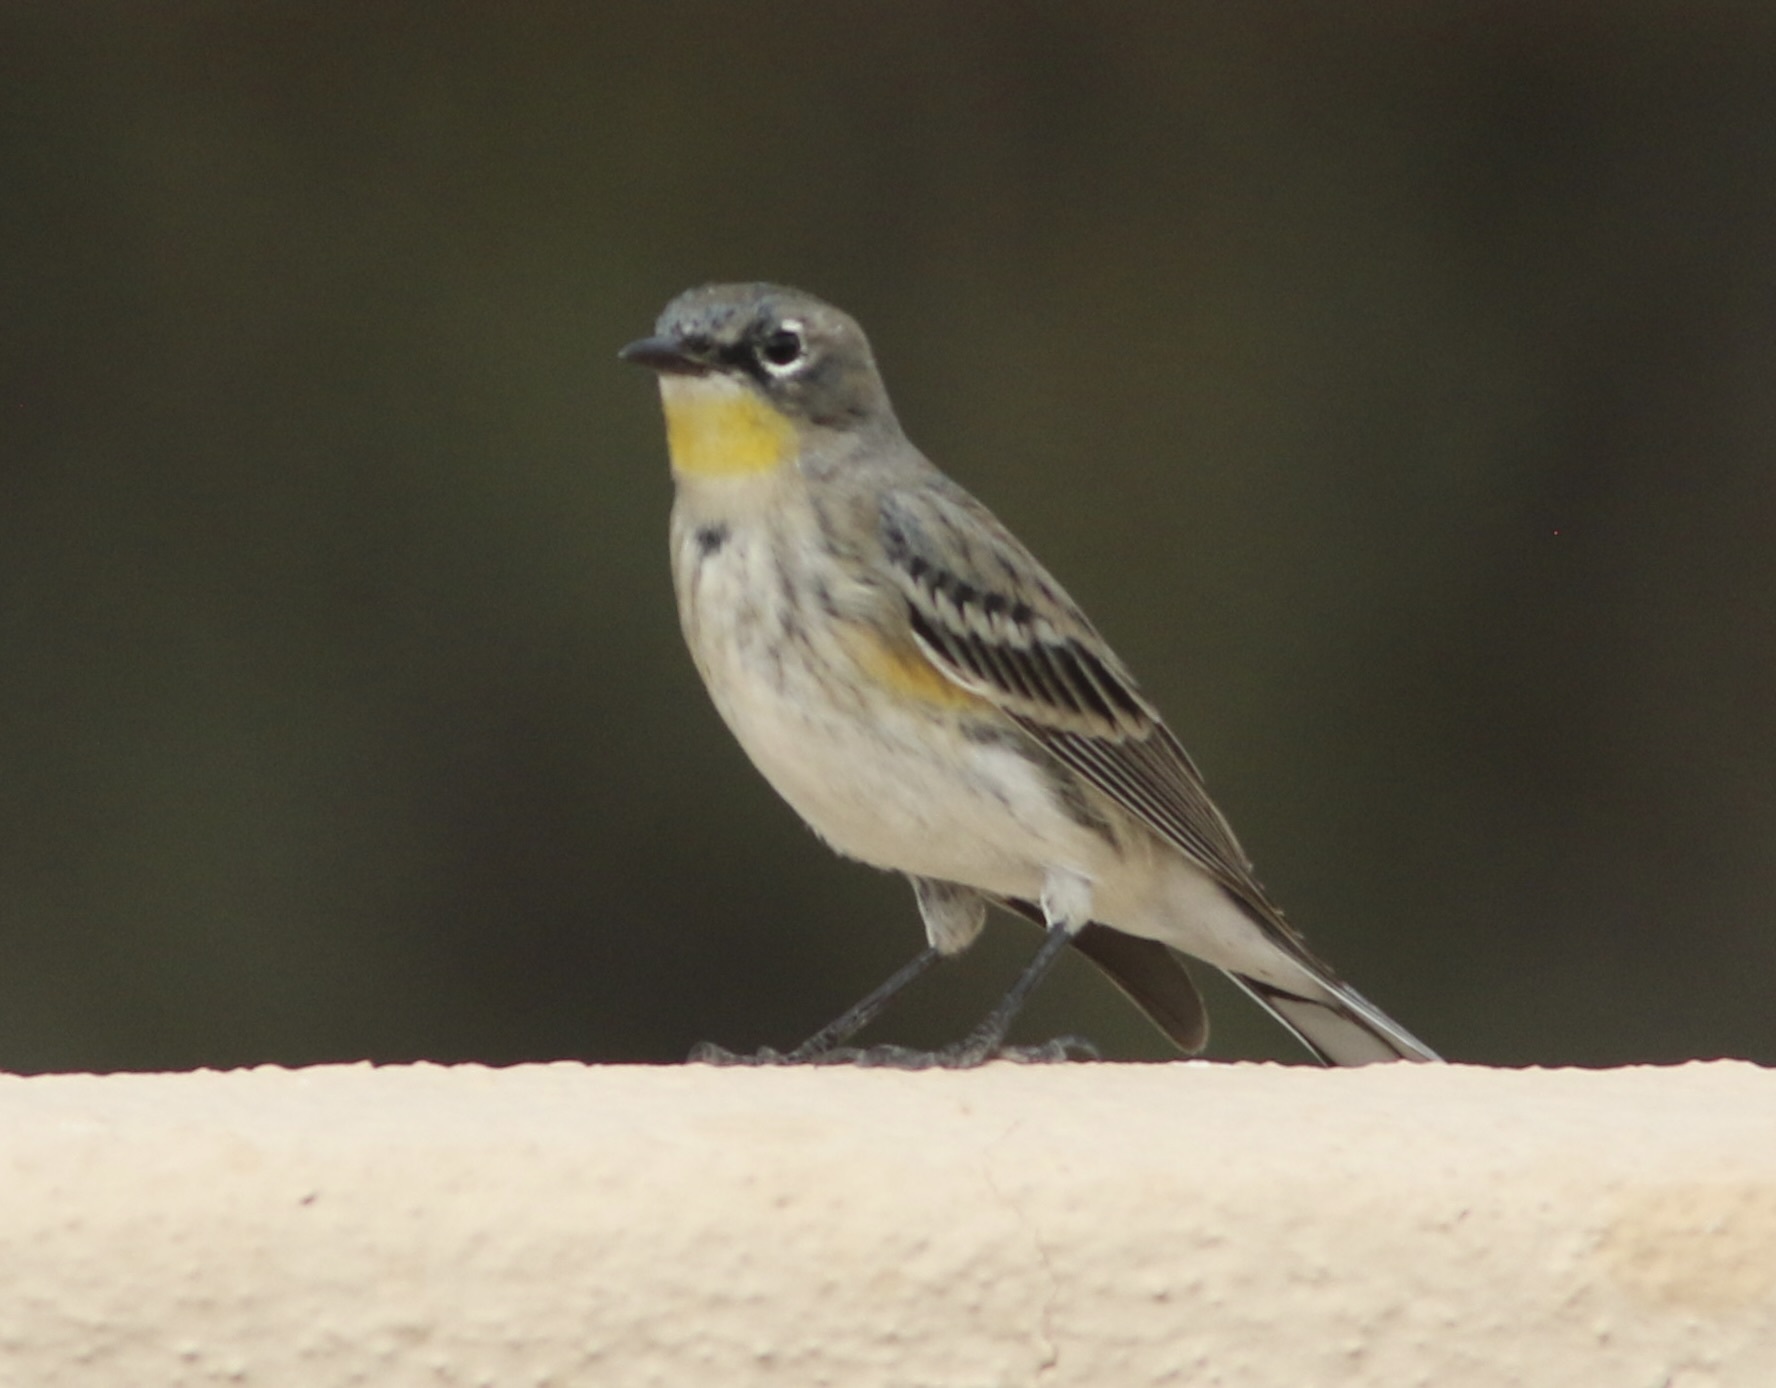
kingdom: Animalia
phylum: Chordata
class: Aves
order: Passeriformes
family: Parulidae
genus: Setophaga
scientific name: Setophaga coronata
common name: Myrtle warbler
